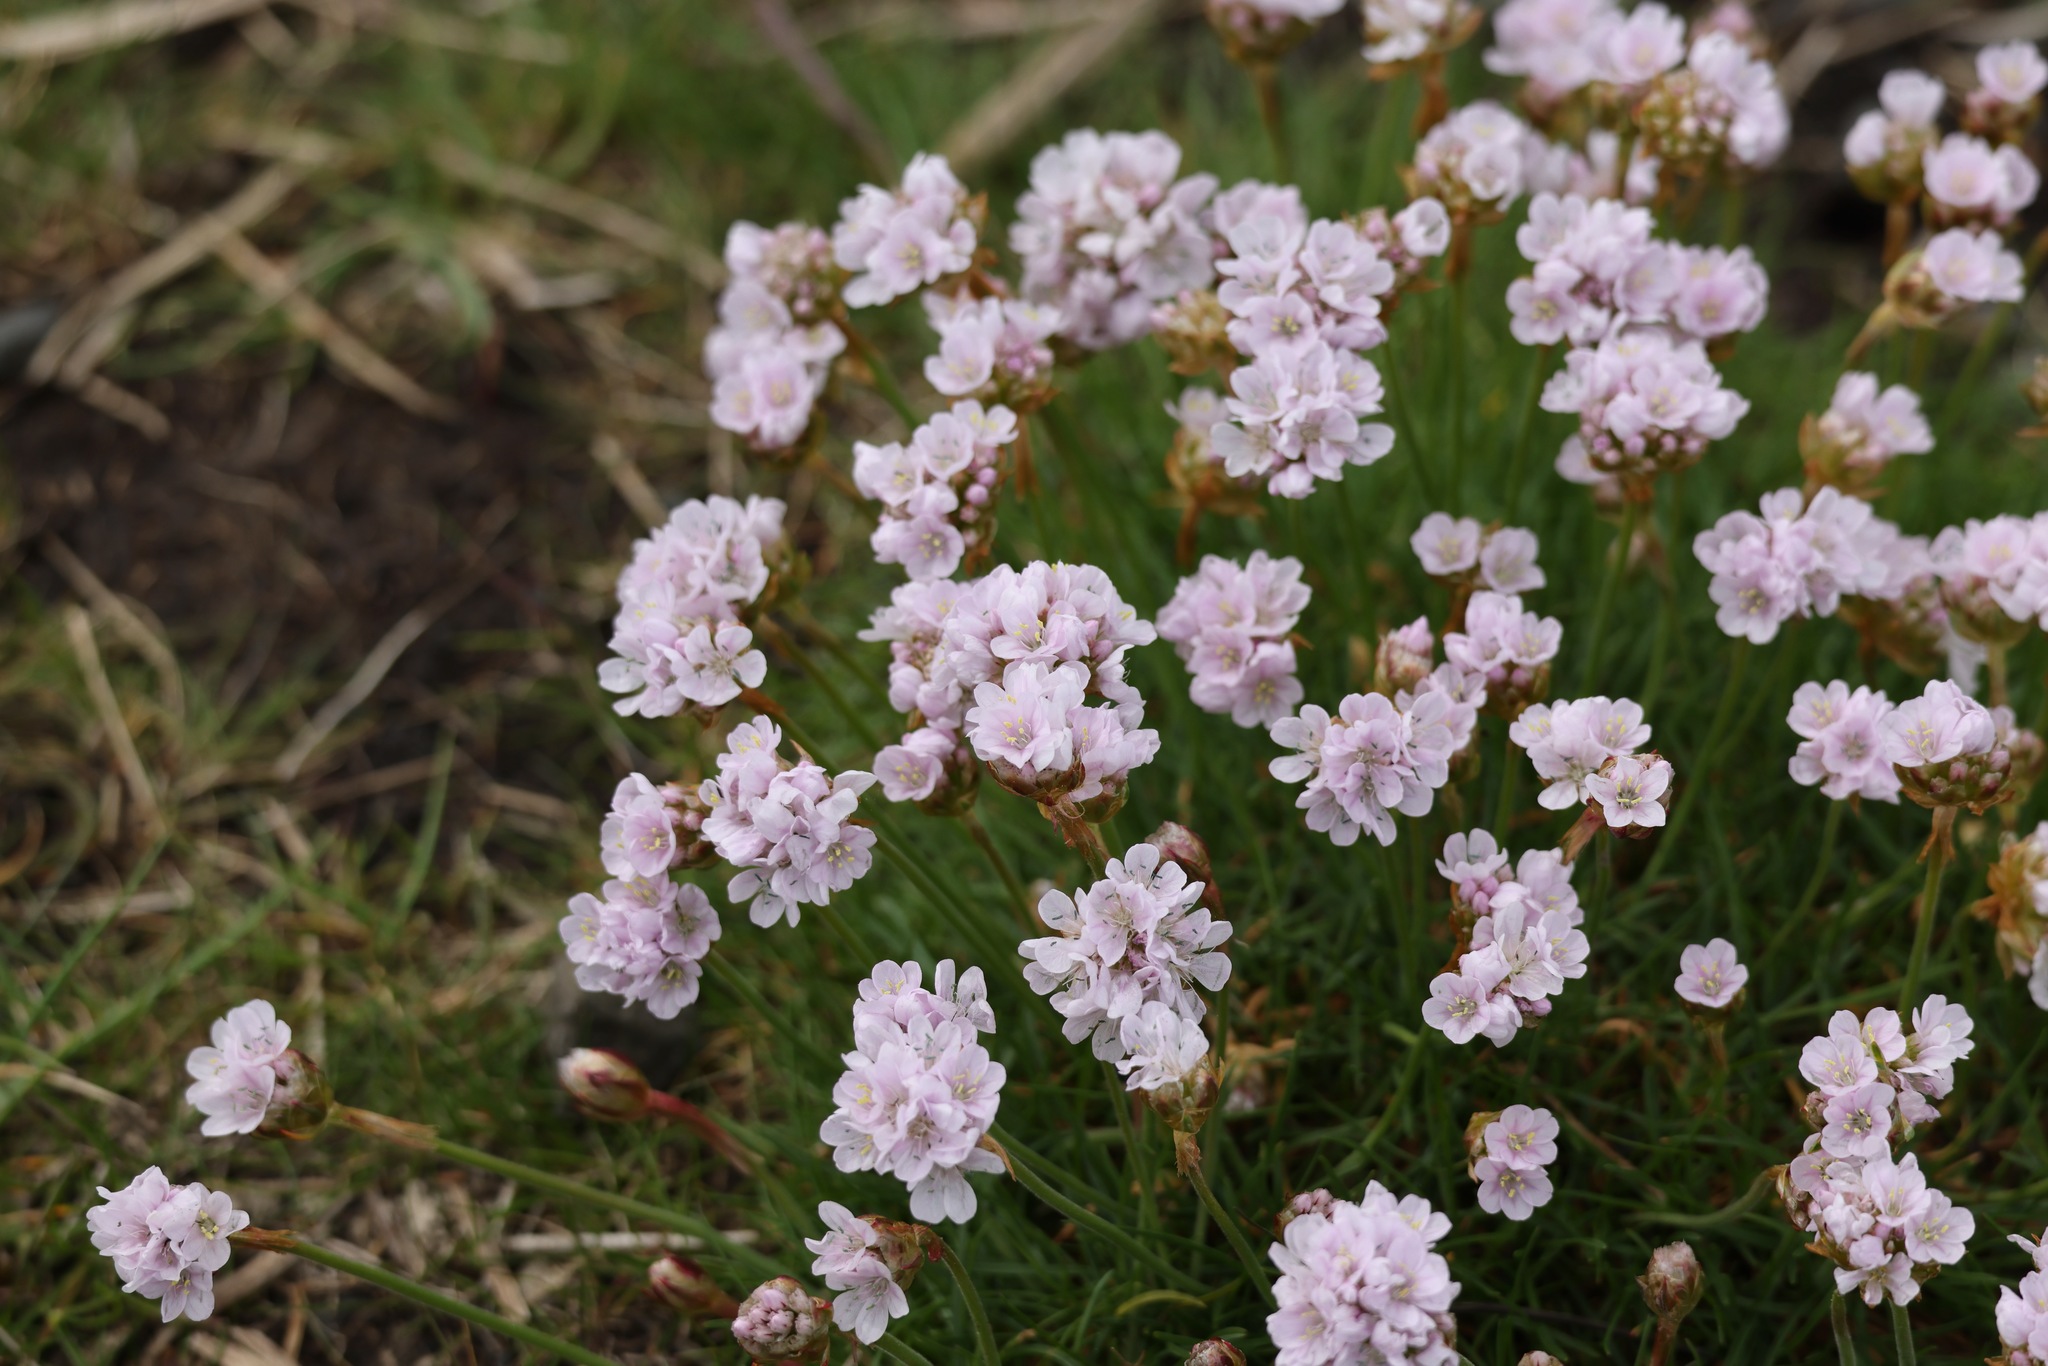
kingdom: Plantae
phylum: Tracheophyta
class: Magnoliopsida
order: Caryophyllales
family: Plumbaginaceae
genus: Armeria
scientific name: Armeria maritima
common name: Thrift
